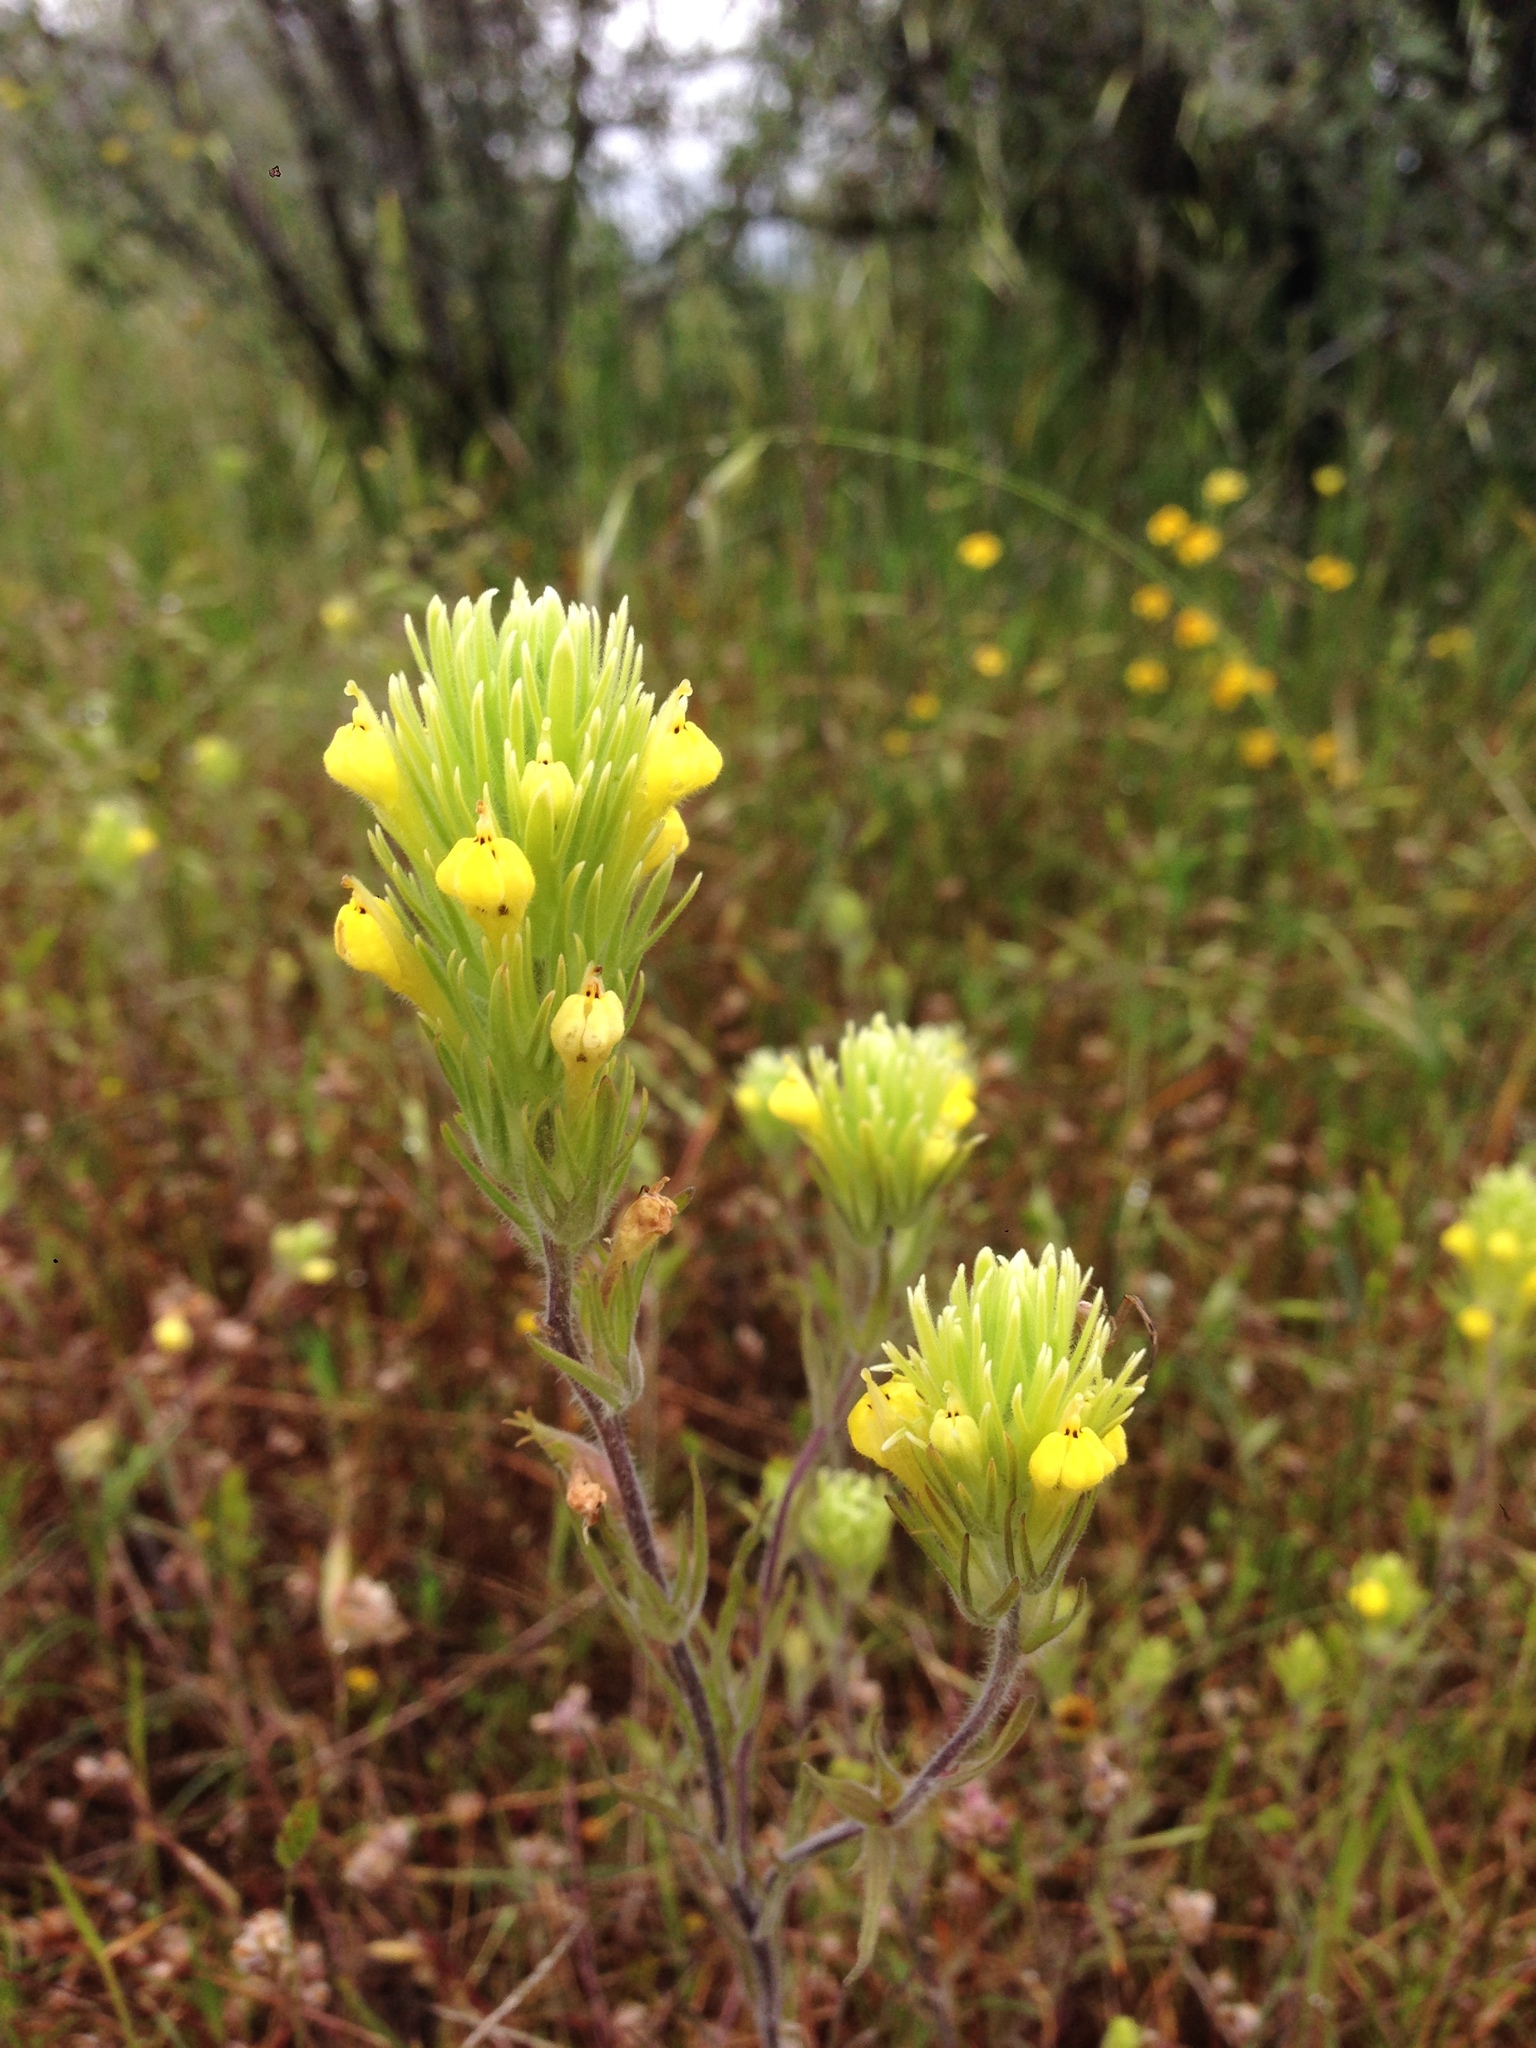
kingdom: Plantae
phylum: Tracheophyta
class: Magnoliopsida
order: Lamiales
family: Orobanchaceae
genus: Castilleja
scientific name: Castilleja lacera
